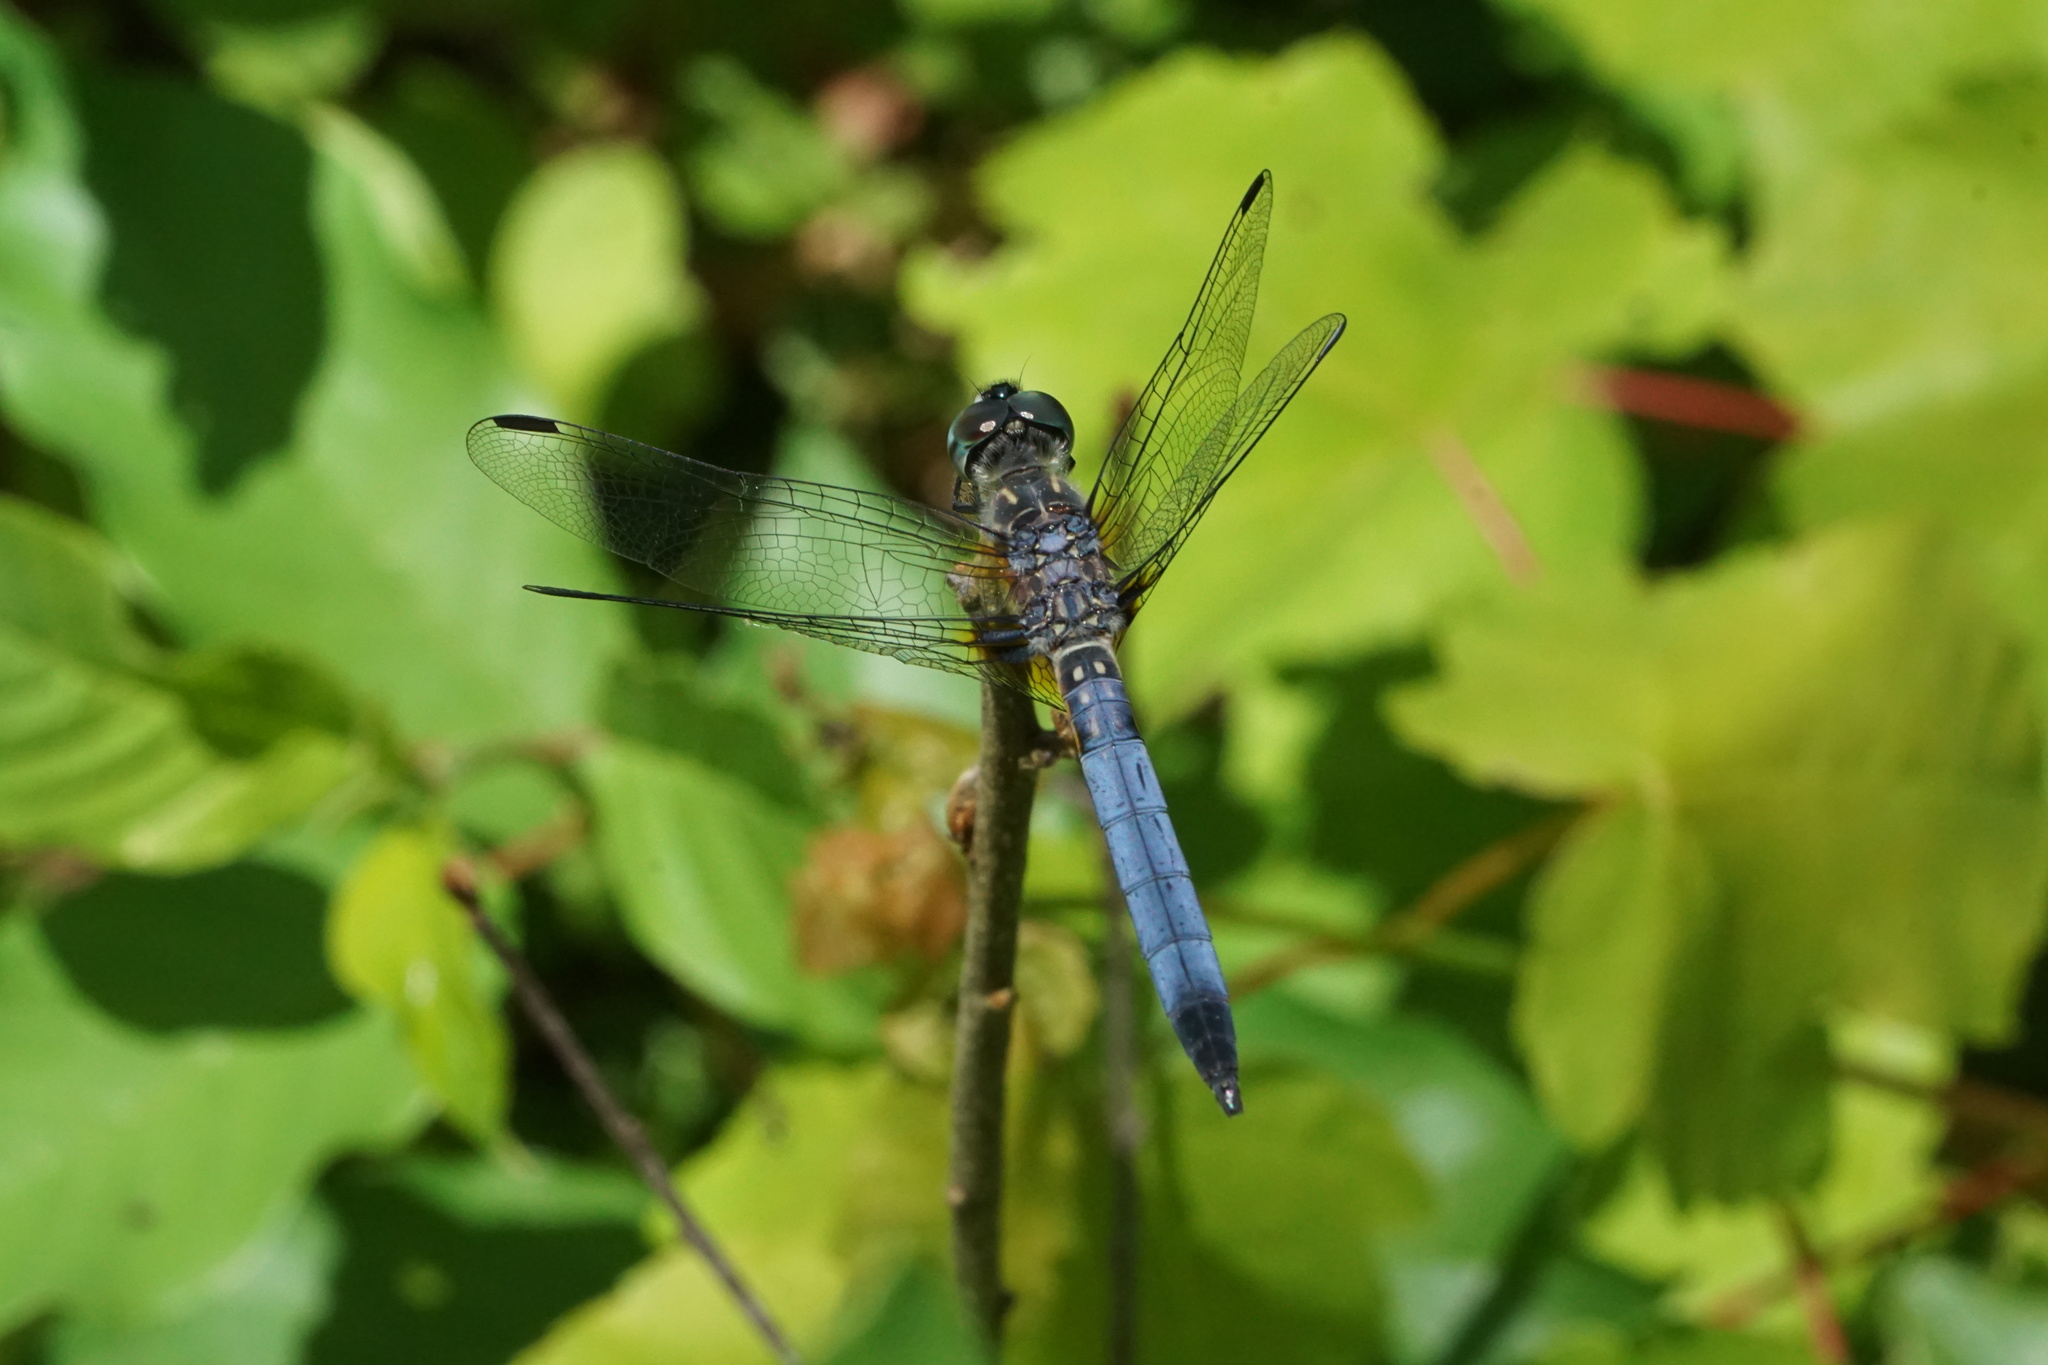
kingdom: Animalia
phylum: Arthropoda
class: Insecta
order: Odonata
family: Libellulidae
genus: Pachydiplax
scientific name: Pachydiplax longipennis
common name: Blue dasher
